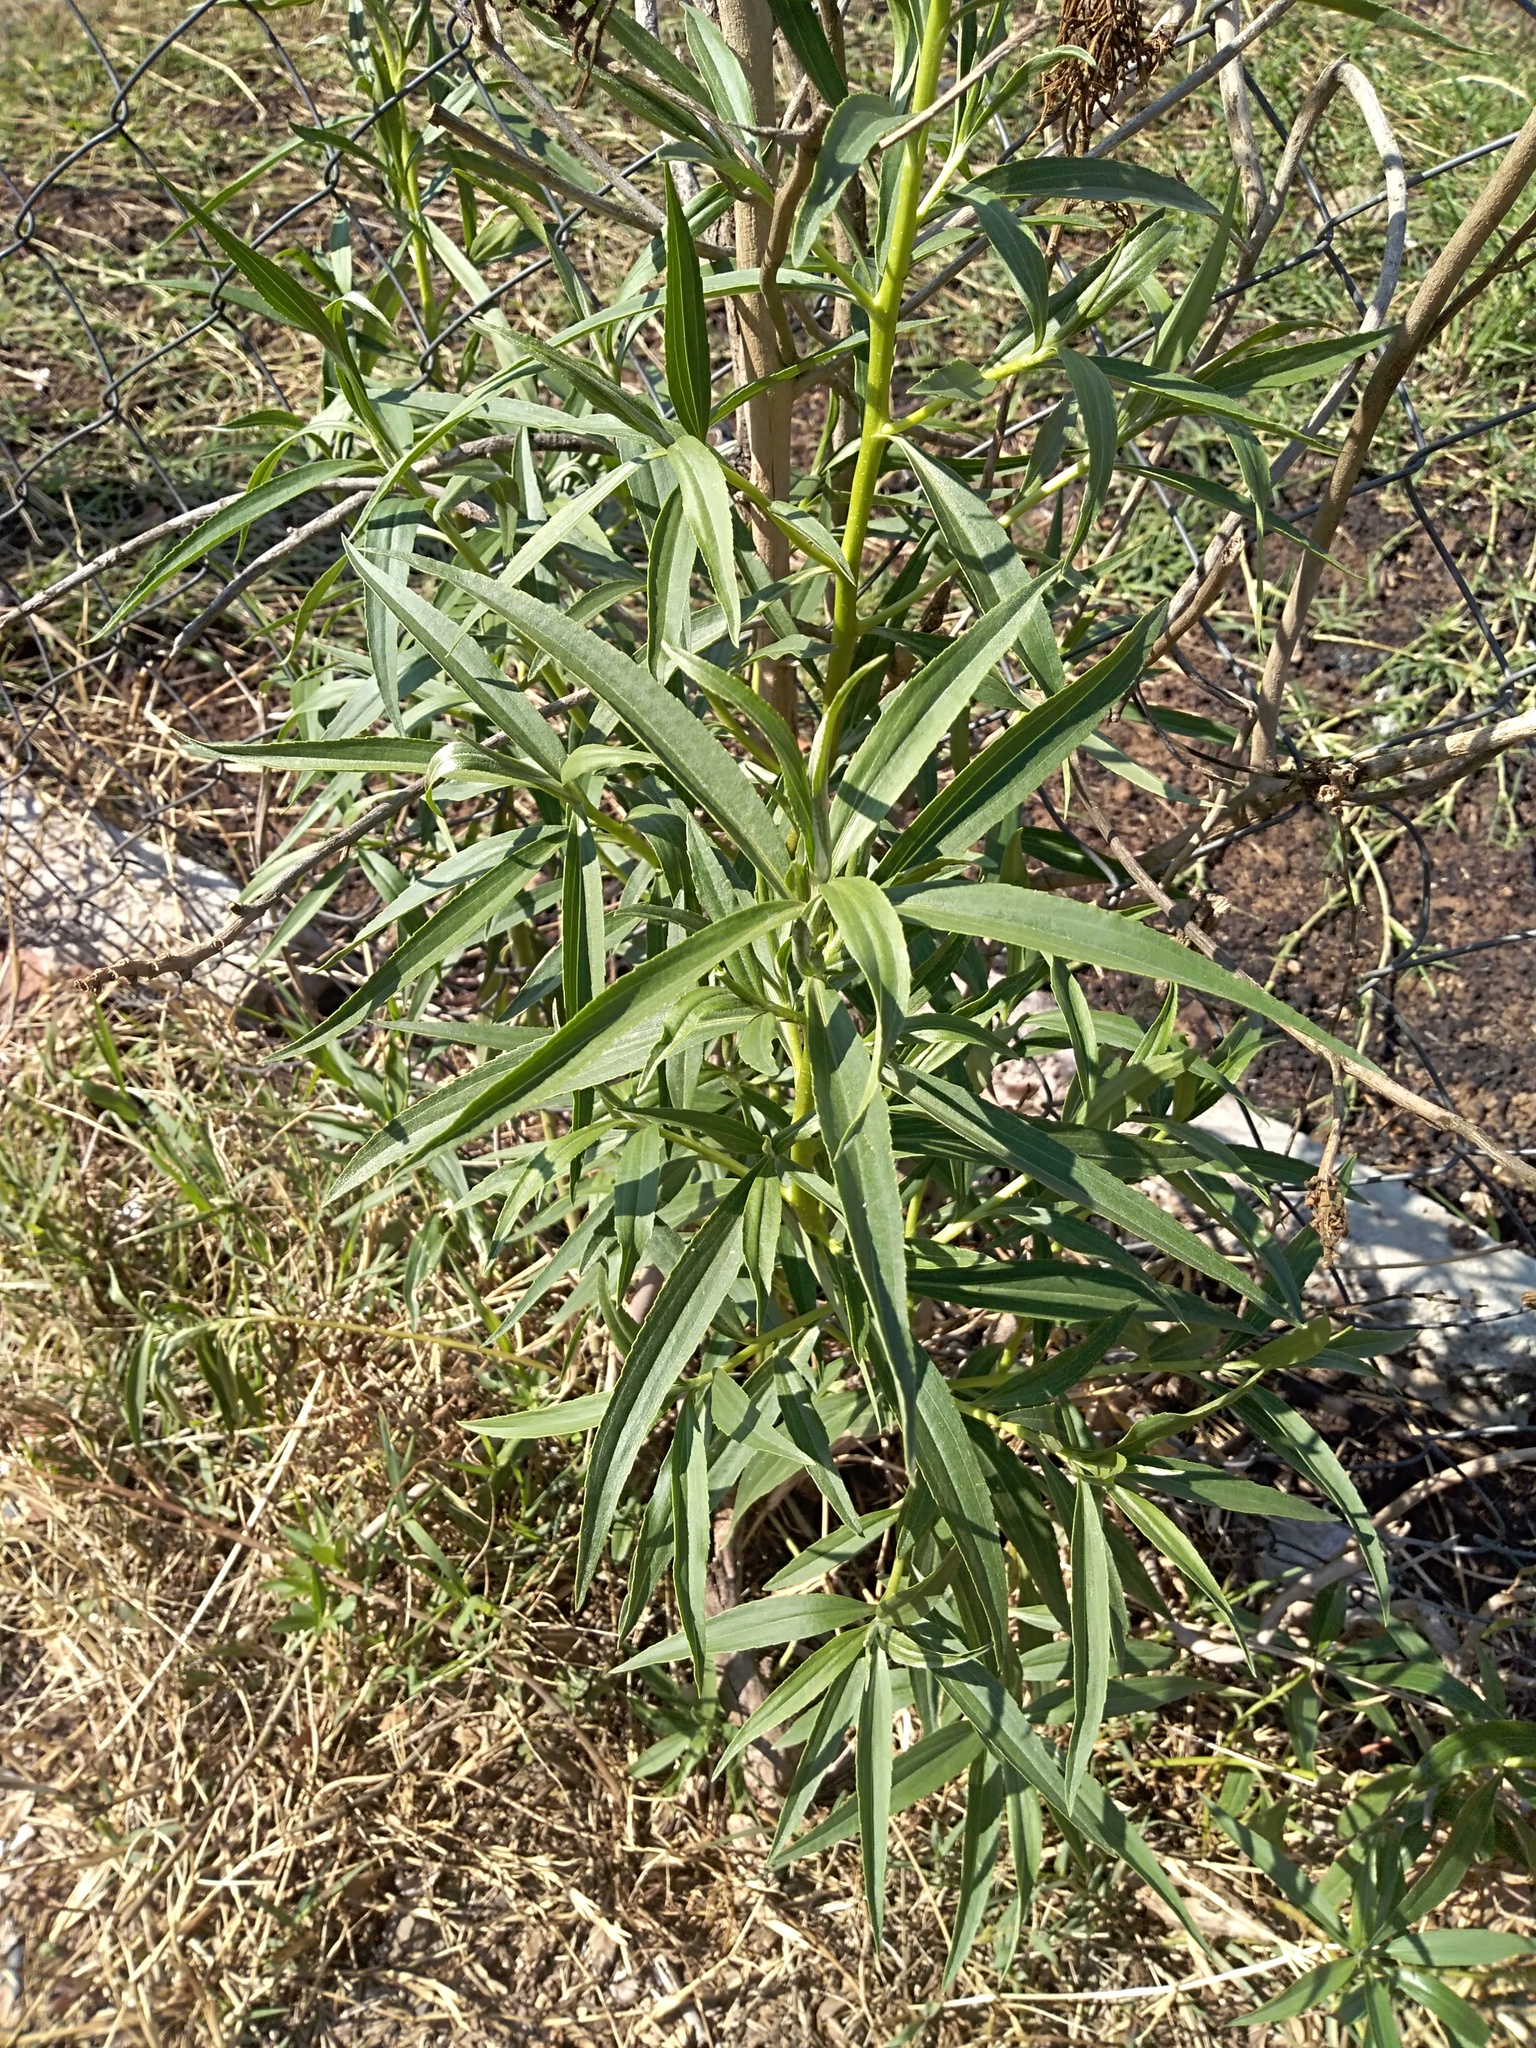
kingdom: Plantae
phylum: Tracheophyta
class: Magnoliopsida
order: Asterales
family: Asteraceae
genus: Barkleyanthus
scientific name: Barkleyanthus salicifolius
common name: Willow ragwort
